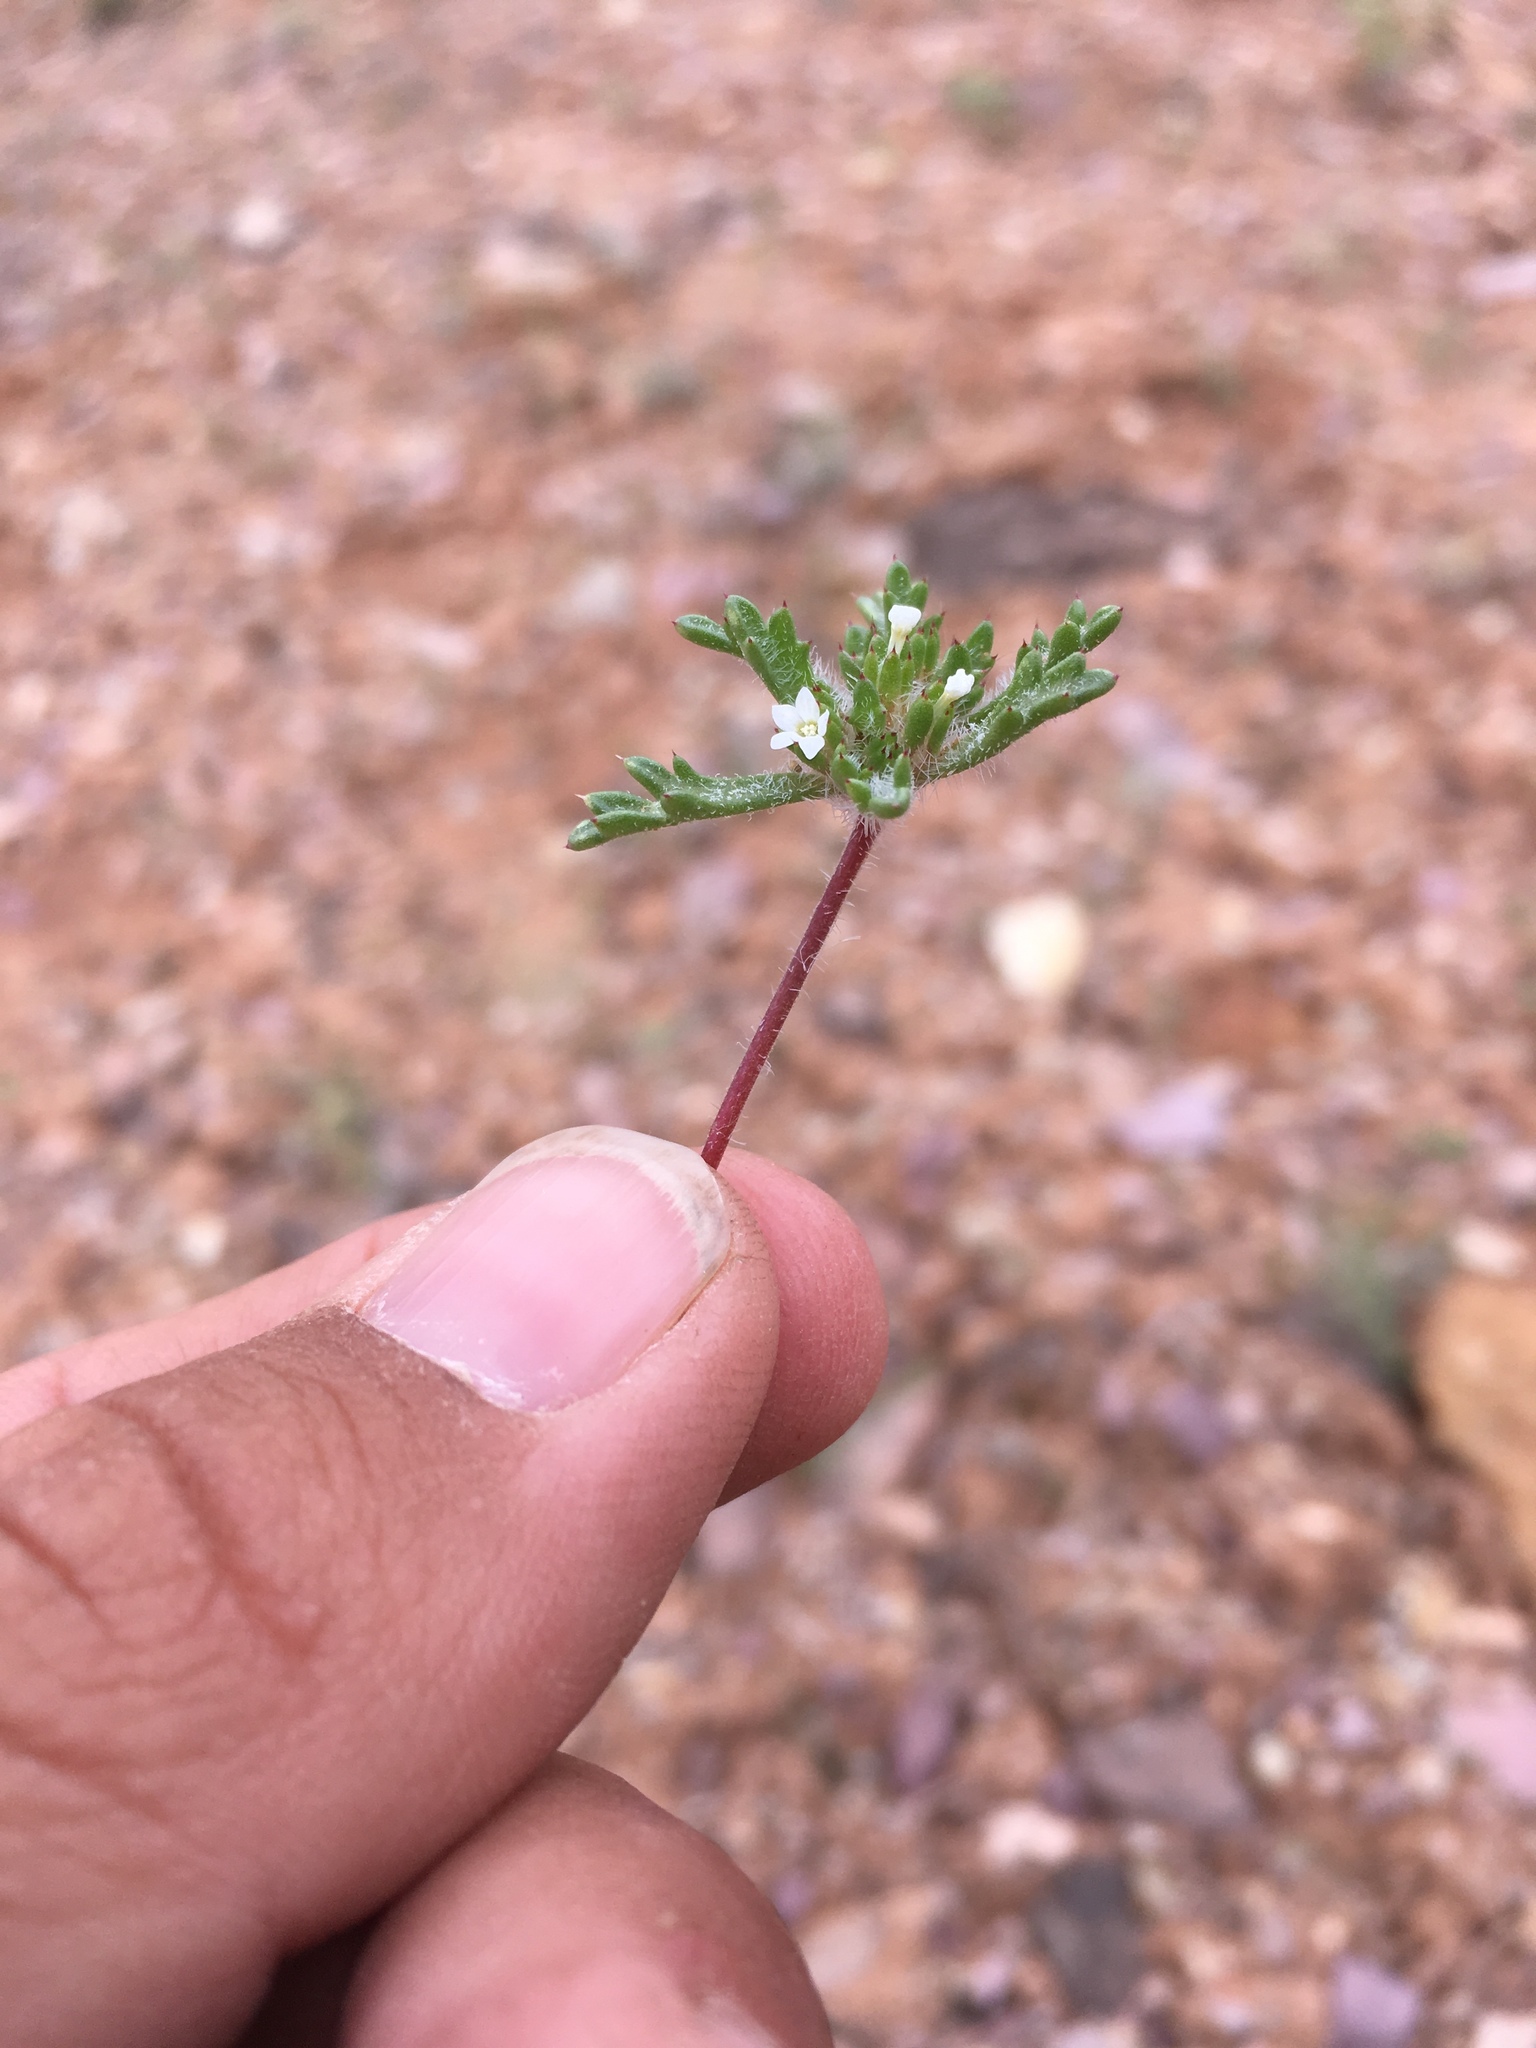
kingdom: Plantae
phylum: Tracheophyta
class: Magnoliopsida
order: Ericales
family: Polemoniaceae
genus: Ipomopsis
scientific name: Ipomopsis polycladon
